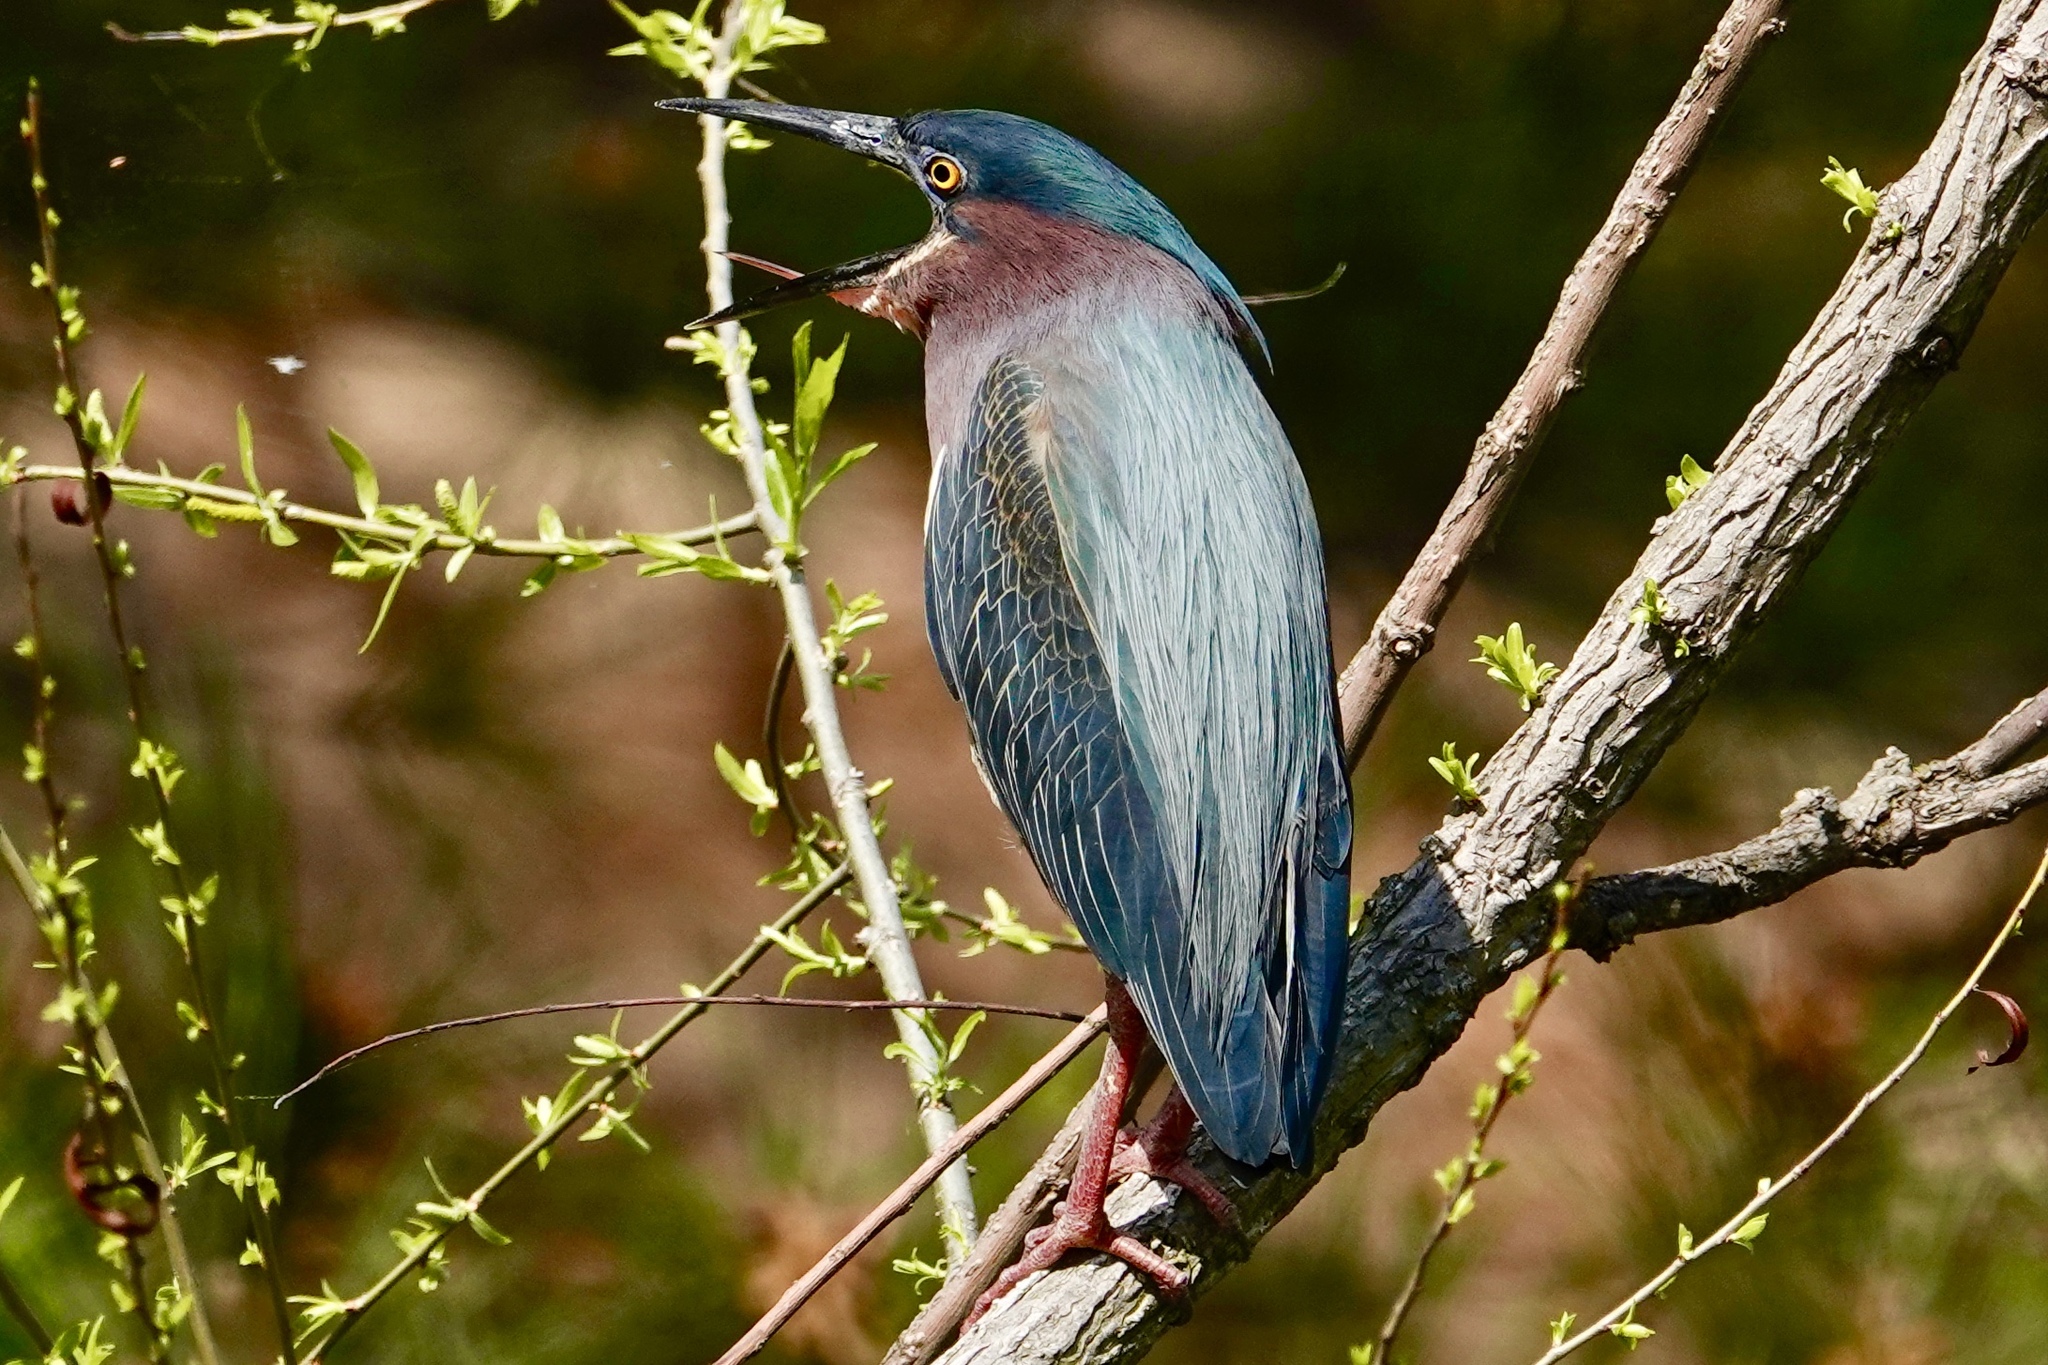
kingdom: Animalia
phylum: Chordata
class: Aves
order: Pelecaniformes
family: Ardeidae
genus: Butorides
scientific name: Butorides virescens
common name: Green heron
